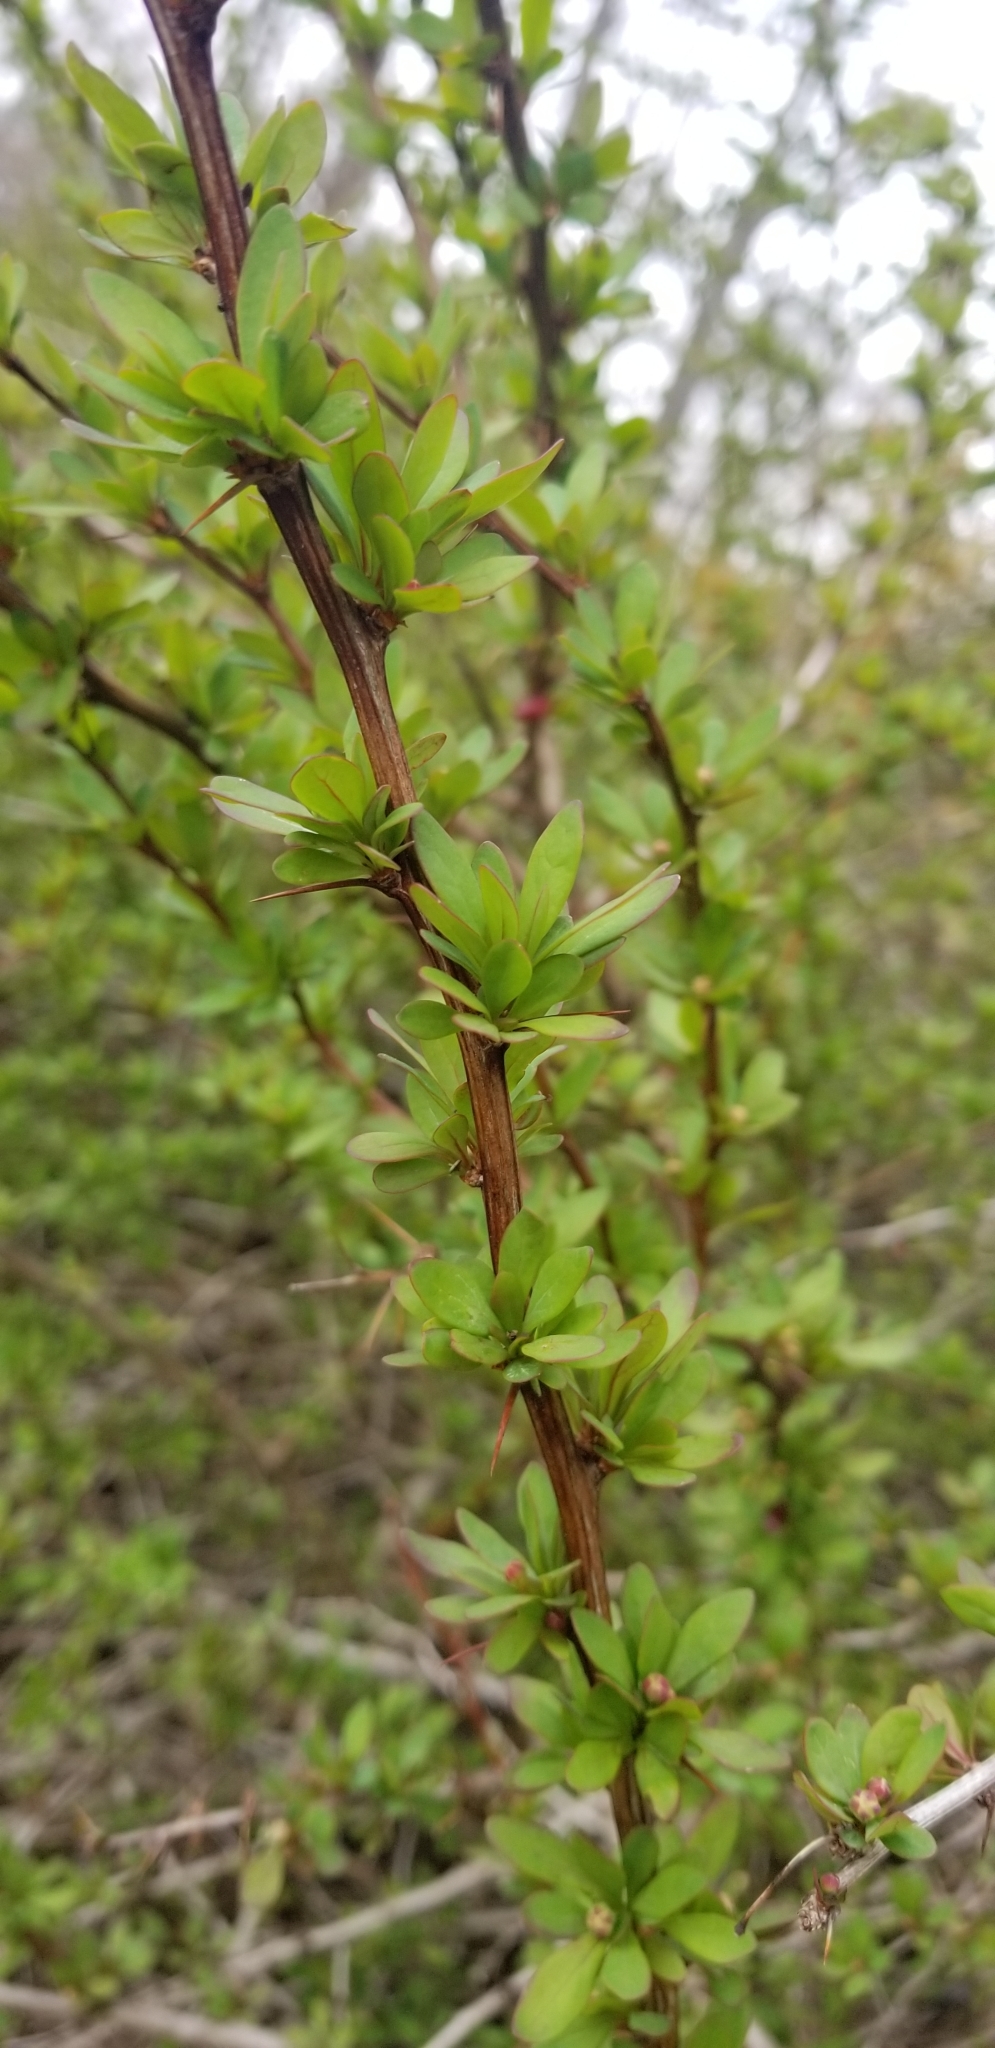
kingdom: Plantae
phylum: Tracheophyta
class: Magnoliopsida
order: Ranunculales
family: Berberidaceae
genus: Berberis
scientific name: Berberis thunbergii
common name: Japanese barberry
